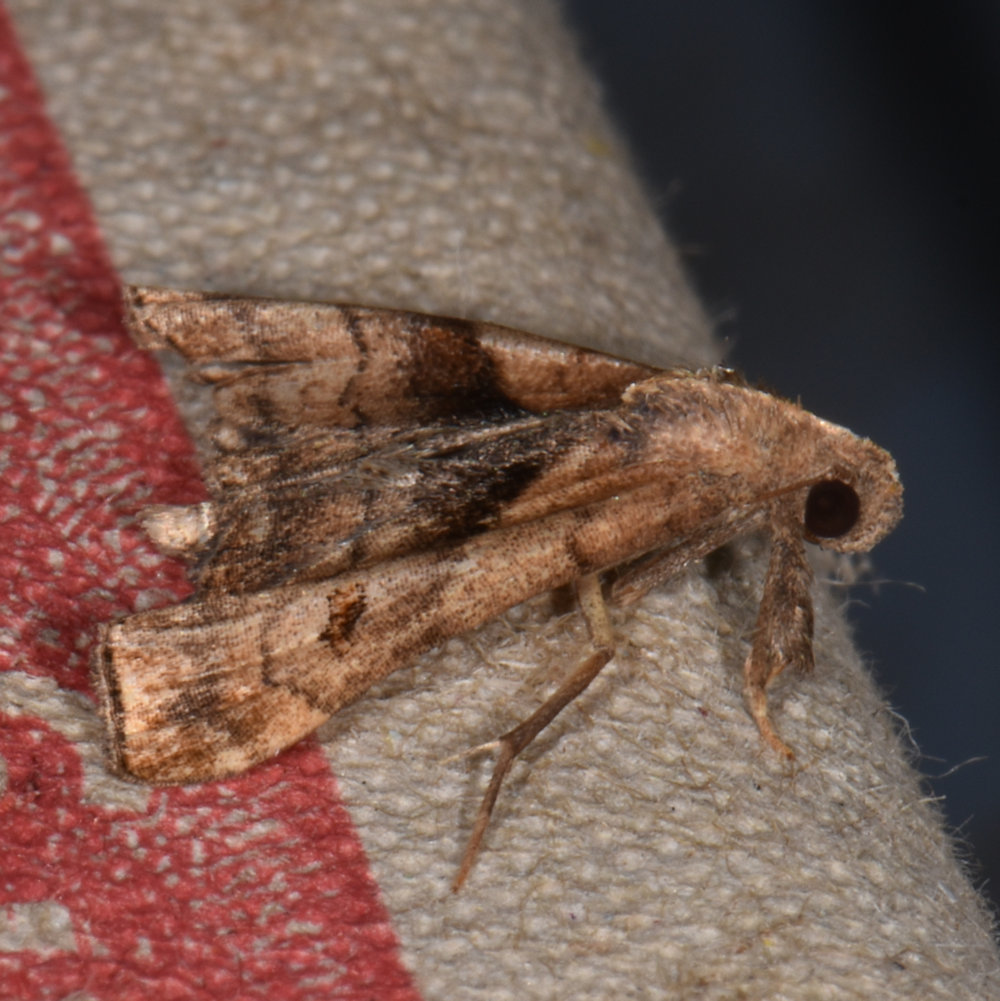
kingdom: Animalia
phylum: Arthropoda
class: Insecta
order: Lepidoptera
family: Erebidae
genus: Palthis
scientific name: Palthis angulalis
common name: Dark-spotted palthis moth
